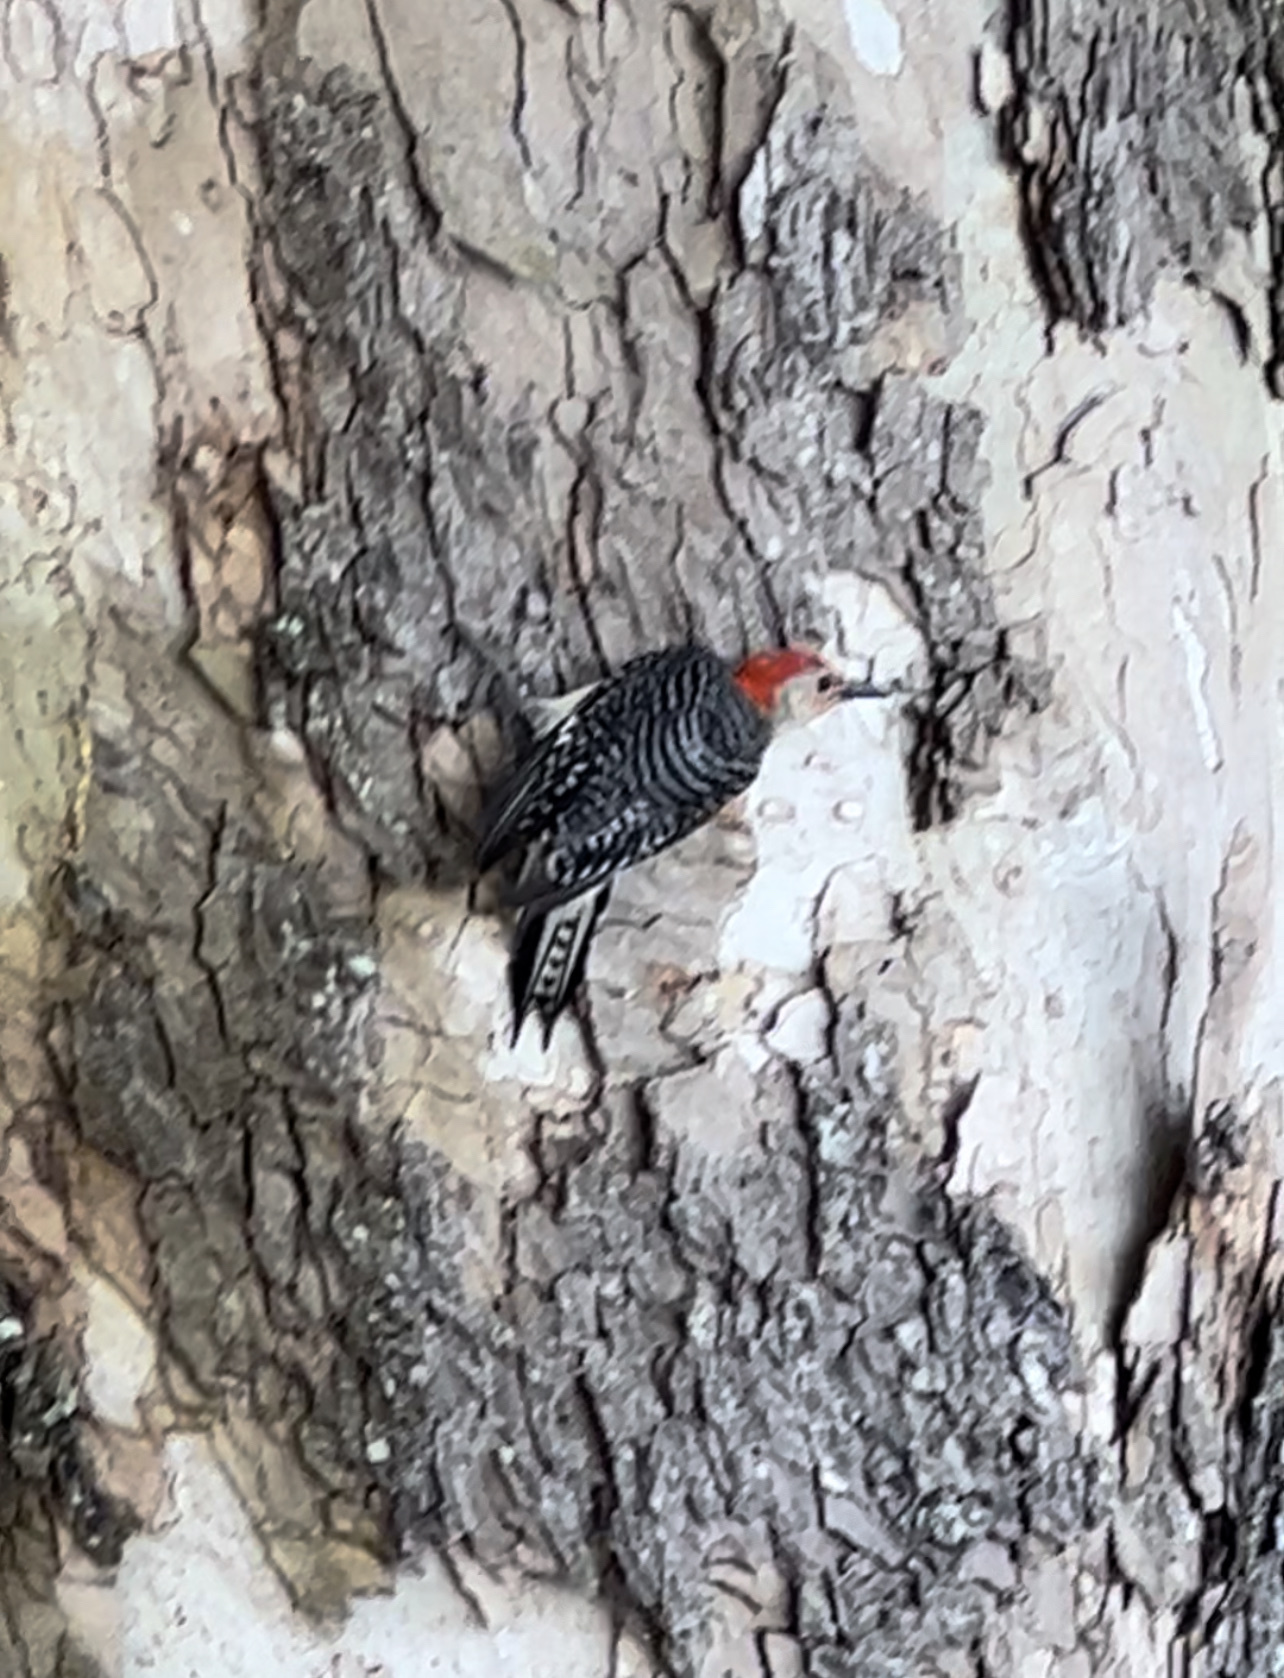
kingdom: Animalia
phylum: Chordata
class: Aves
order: Piciformes
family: Picidae
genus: Melanerpes
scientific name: Melanerpes carolinus
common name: Red-bellied woodpecker
